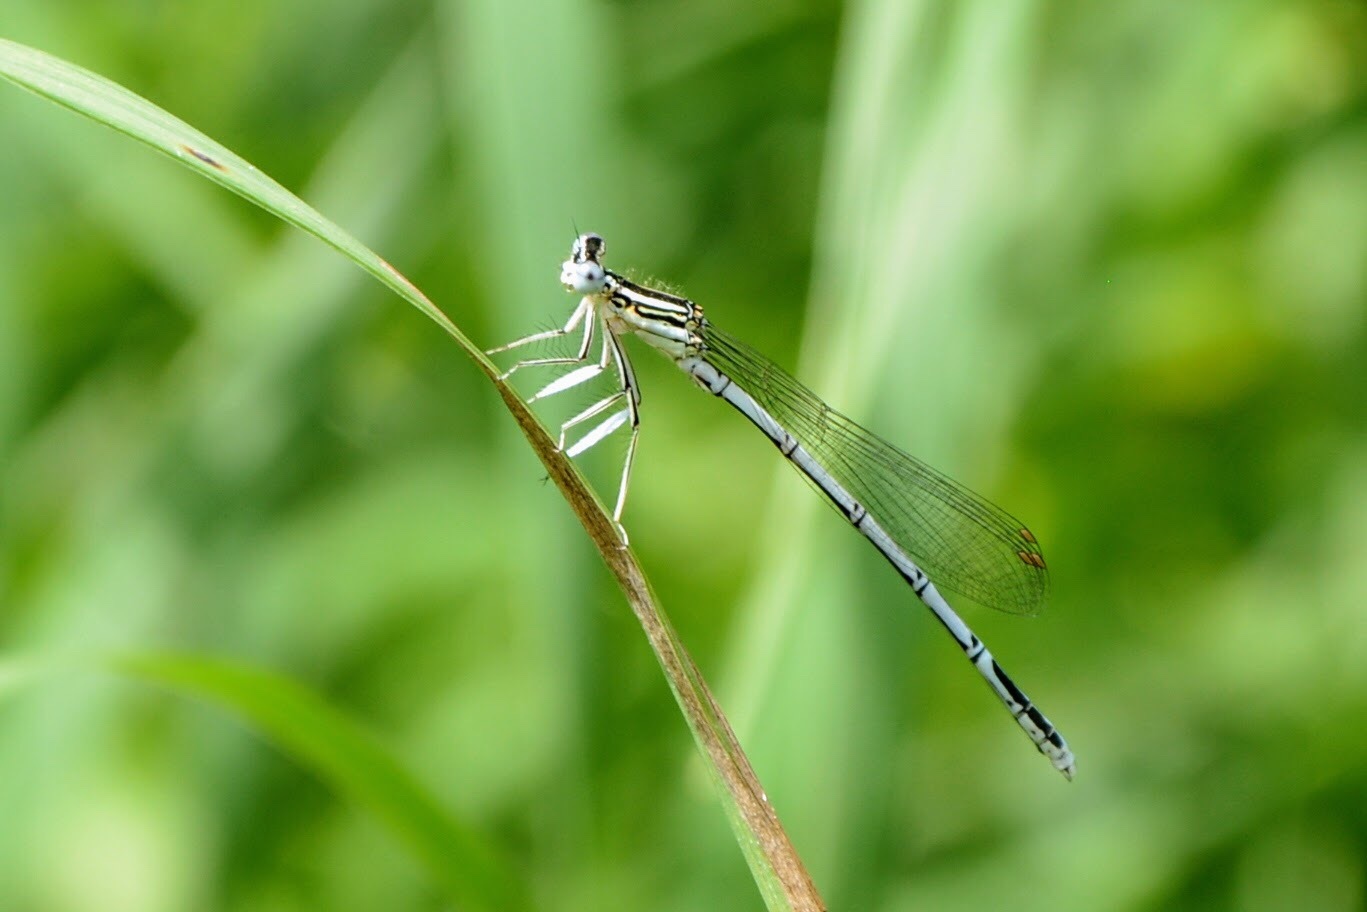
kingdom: Animalia
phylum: Arthropoda
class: Insecta
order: Odonata
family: Platycnemididae
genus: Platycnemis
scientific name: Platycnemis pennipes
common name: White-legged damselfly
